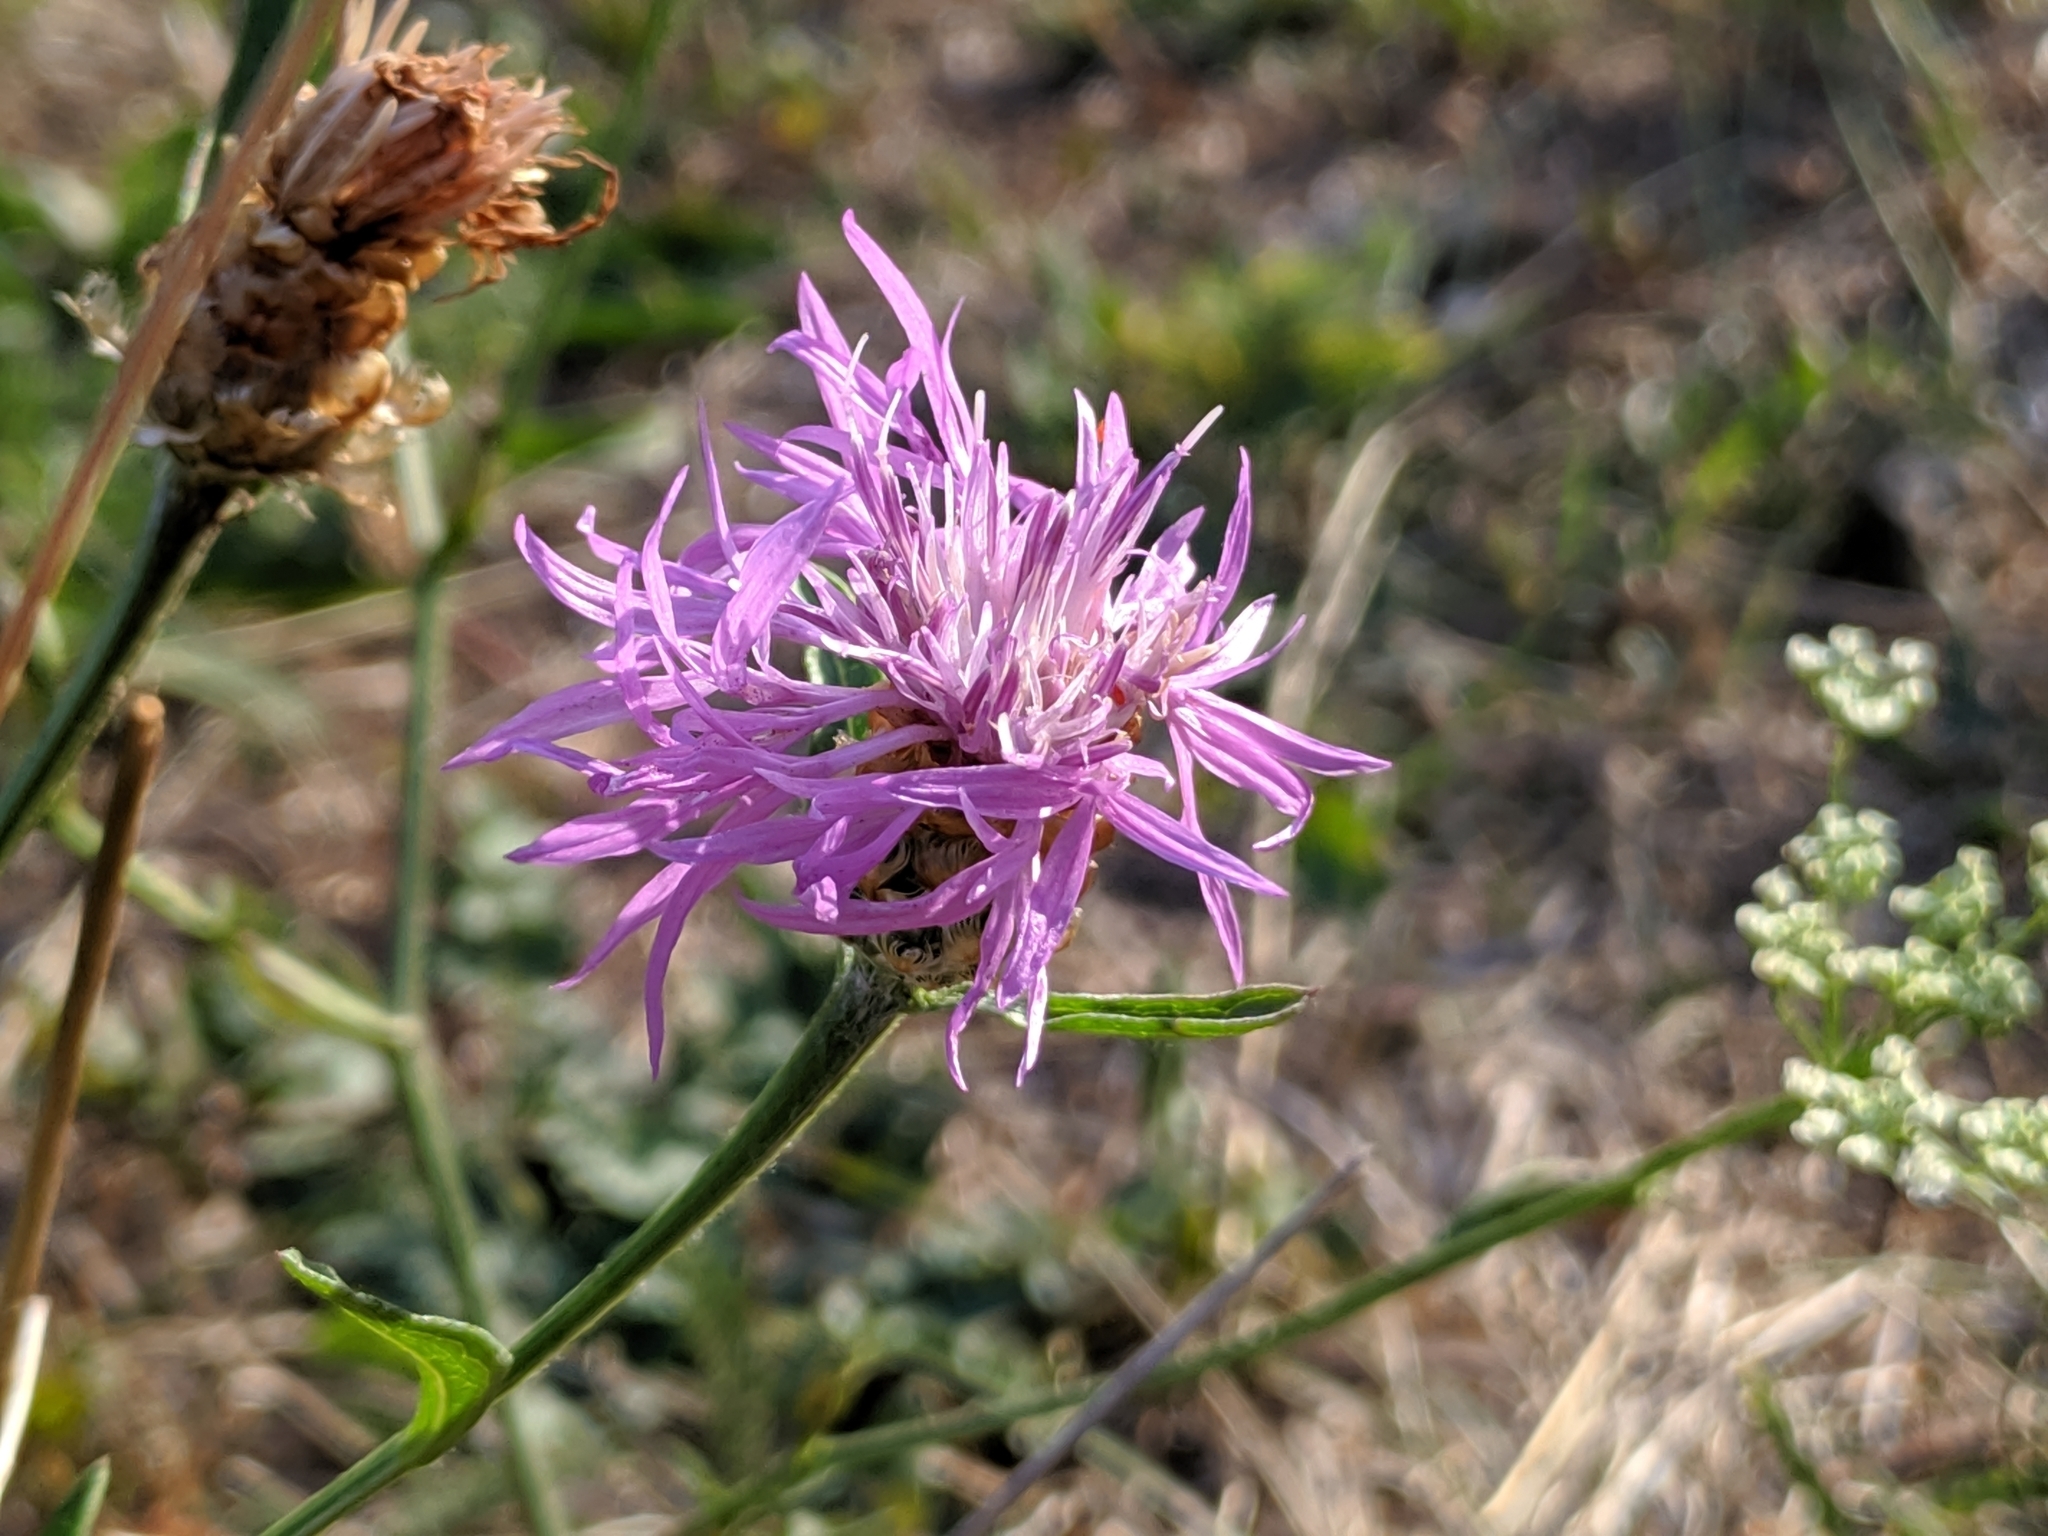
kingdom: Plantae
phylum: Tracheophyta
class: Magnoliopsida
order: Asterales
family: Asteraceae
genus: Centaurea
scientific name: Centaurea jacea
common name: Brown knapweed
